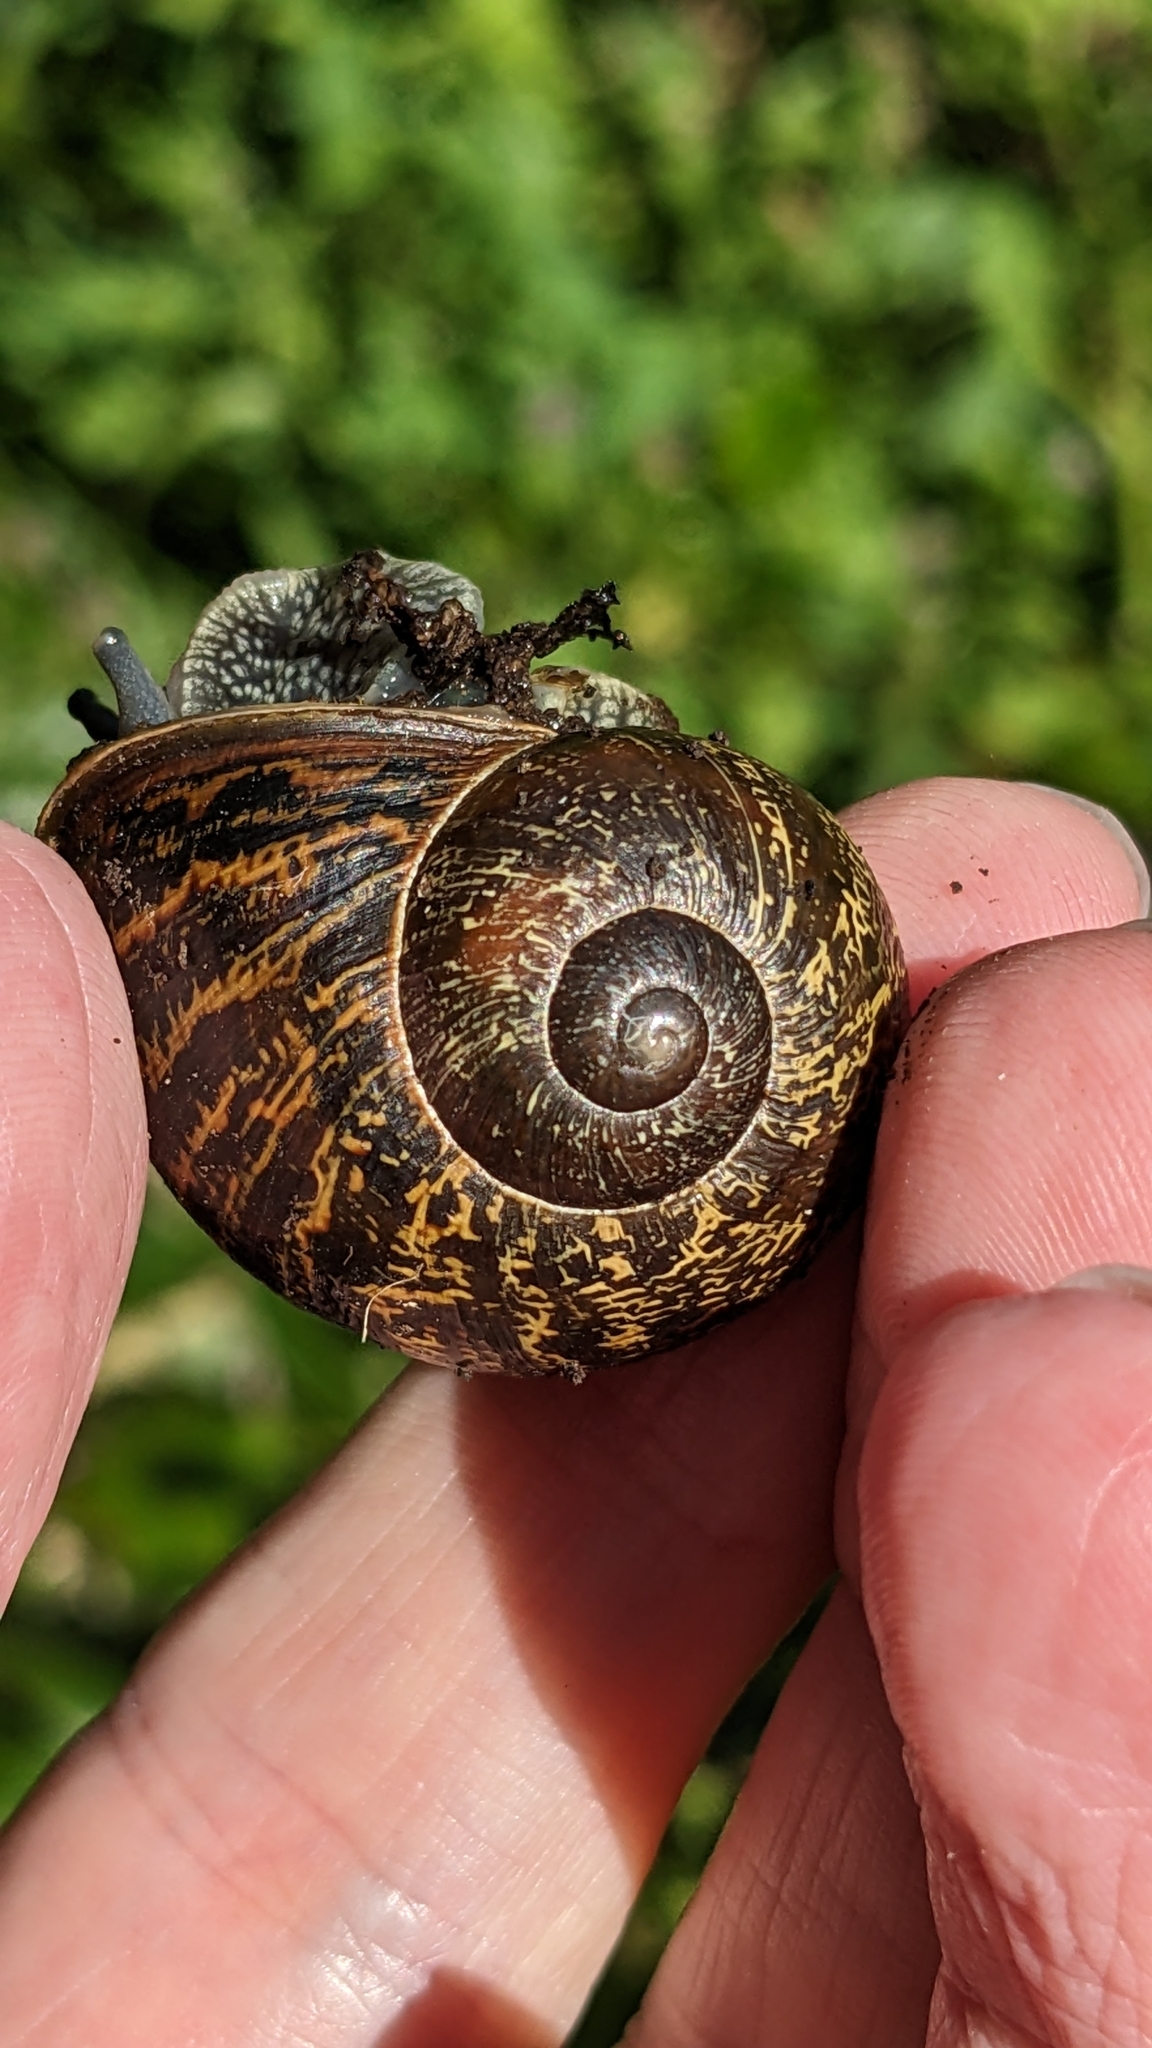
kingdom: Animalia
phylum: Mollusca
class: Gastropoda
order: Stylommatophora
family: Helicidae
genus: Cornu
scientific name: Cornu aspersum
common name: Brown garden snail
